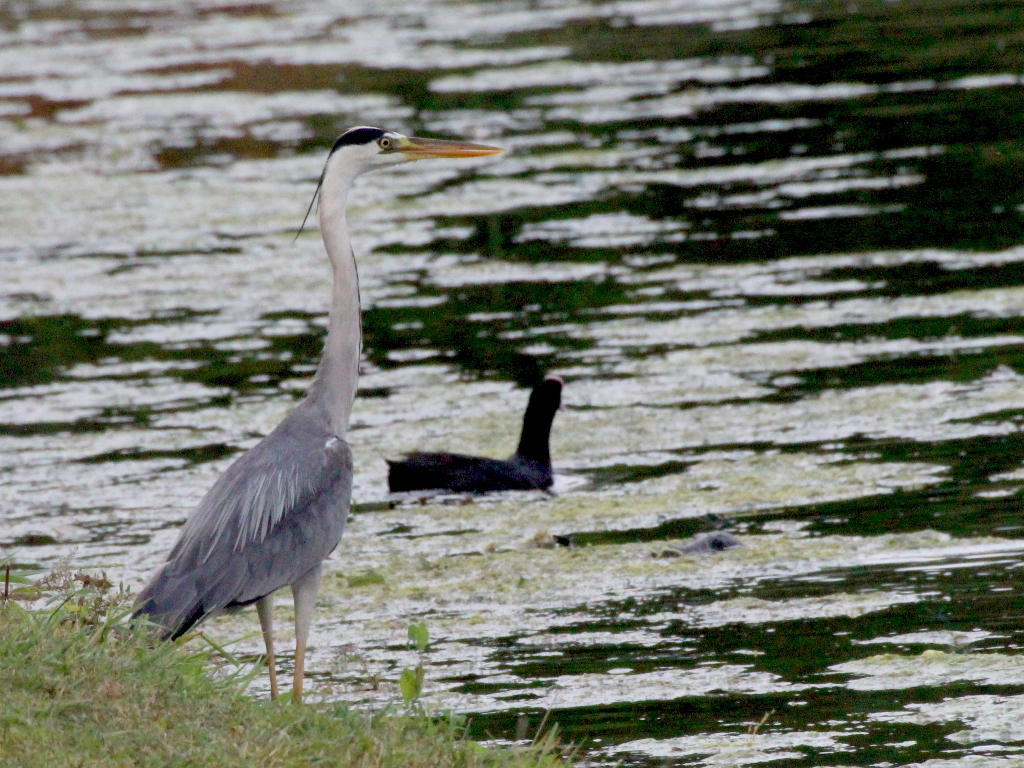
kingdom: Animalia
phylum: Chordata
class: Aves
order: Pelecaniformes
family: Ardeidae
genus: Ardea
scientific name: Ardea cinerea
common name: Grey heron
